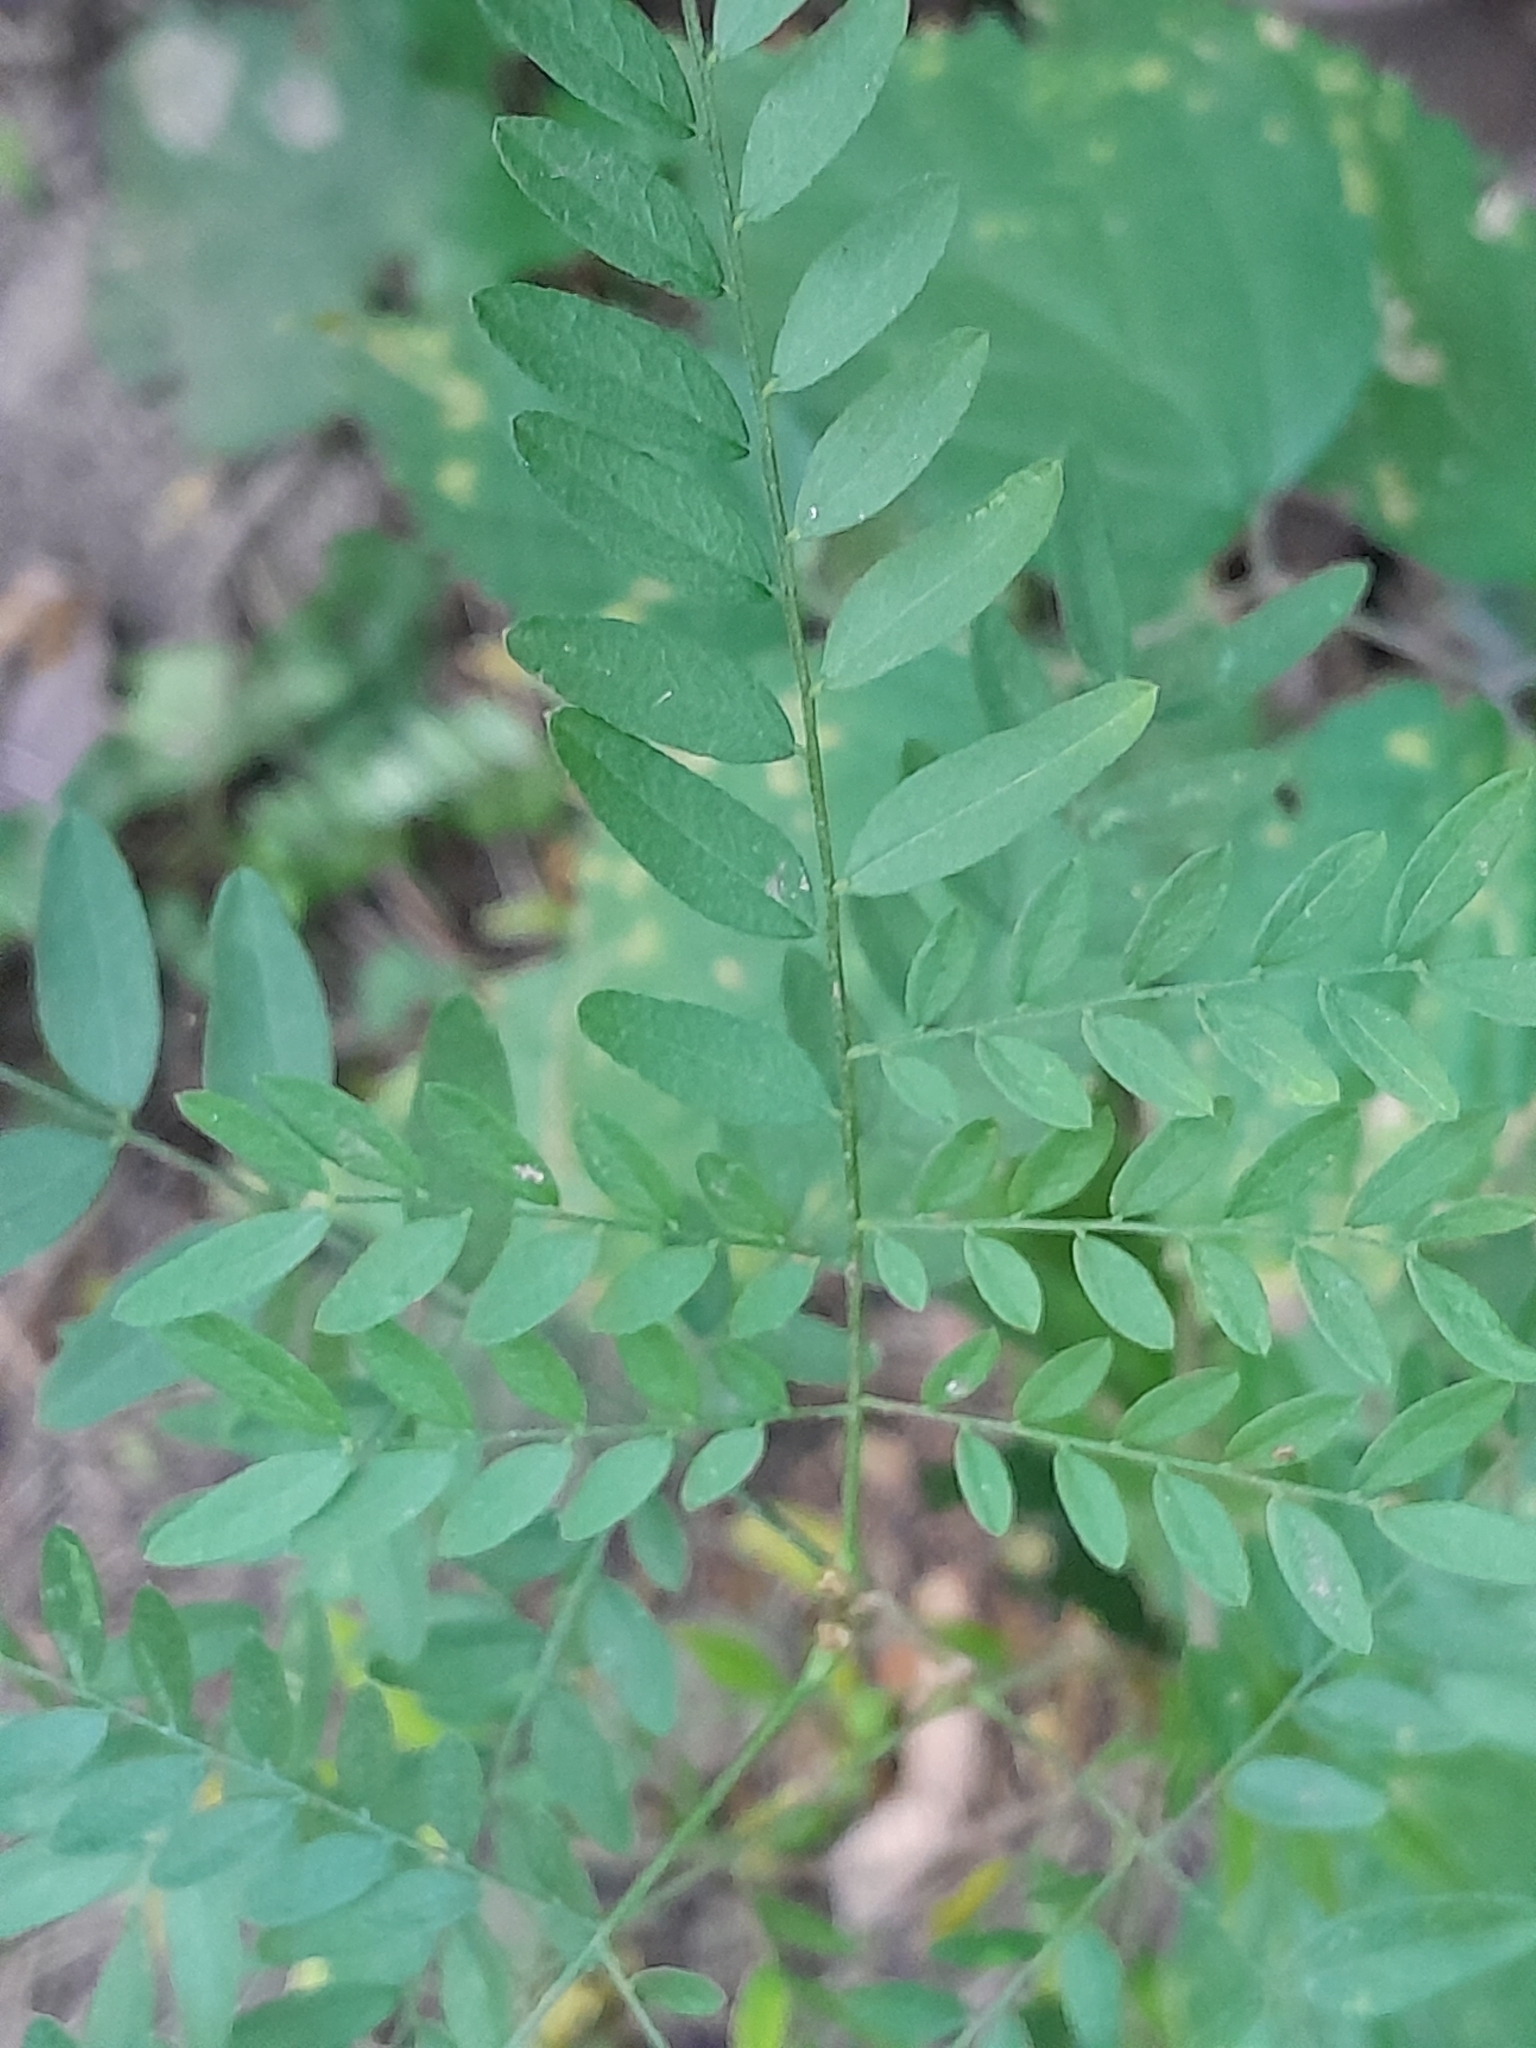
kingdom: Plantae
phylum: Tracheophyta
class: Magnoliopsida
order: Fabales
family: Fabaceae
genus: Gleditsia
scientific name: Gleditsia triacanthos
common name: Common honeylocust
